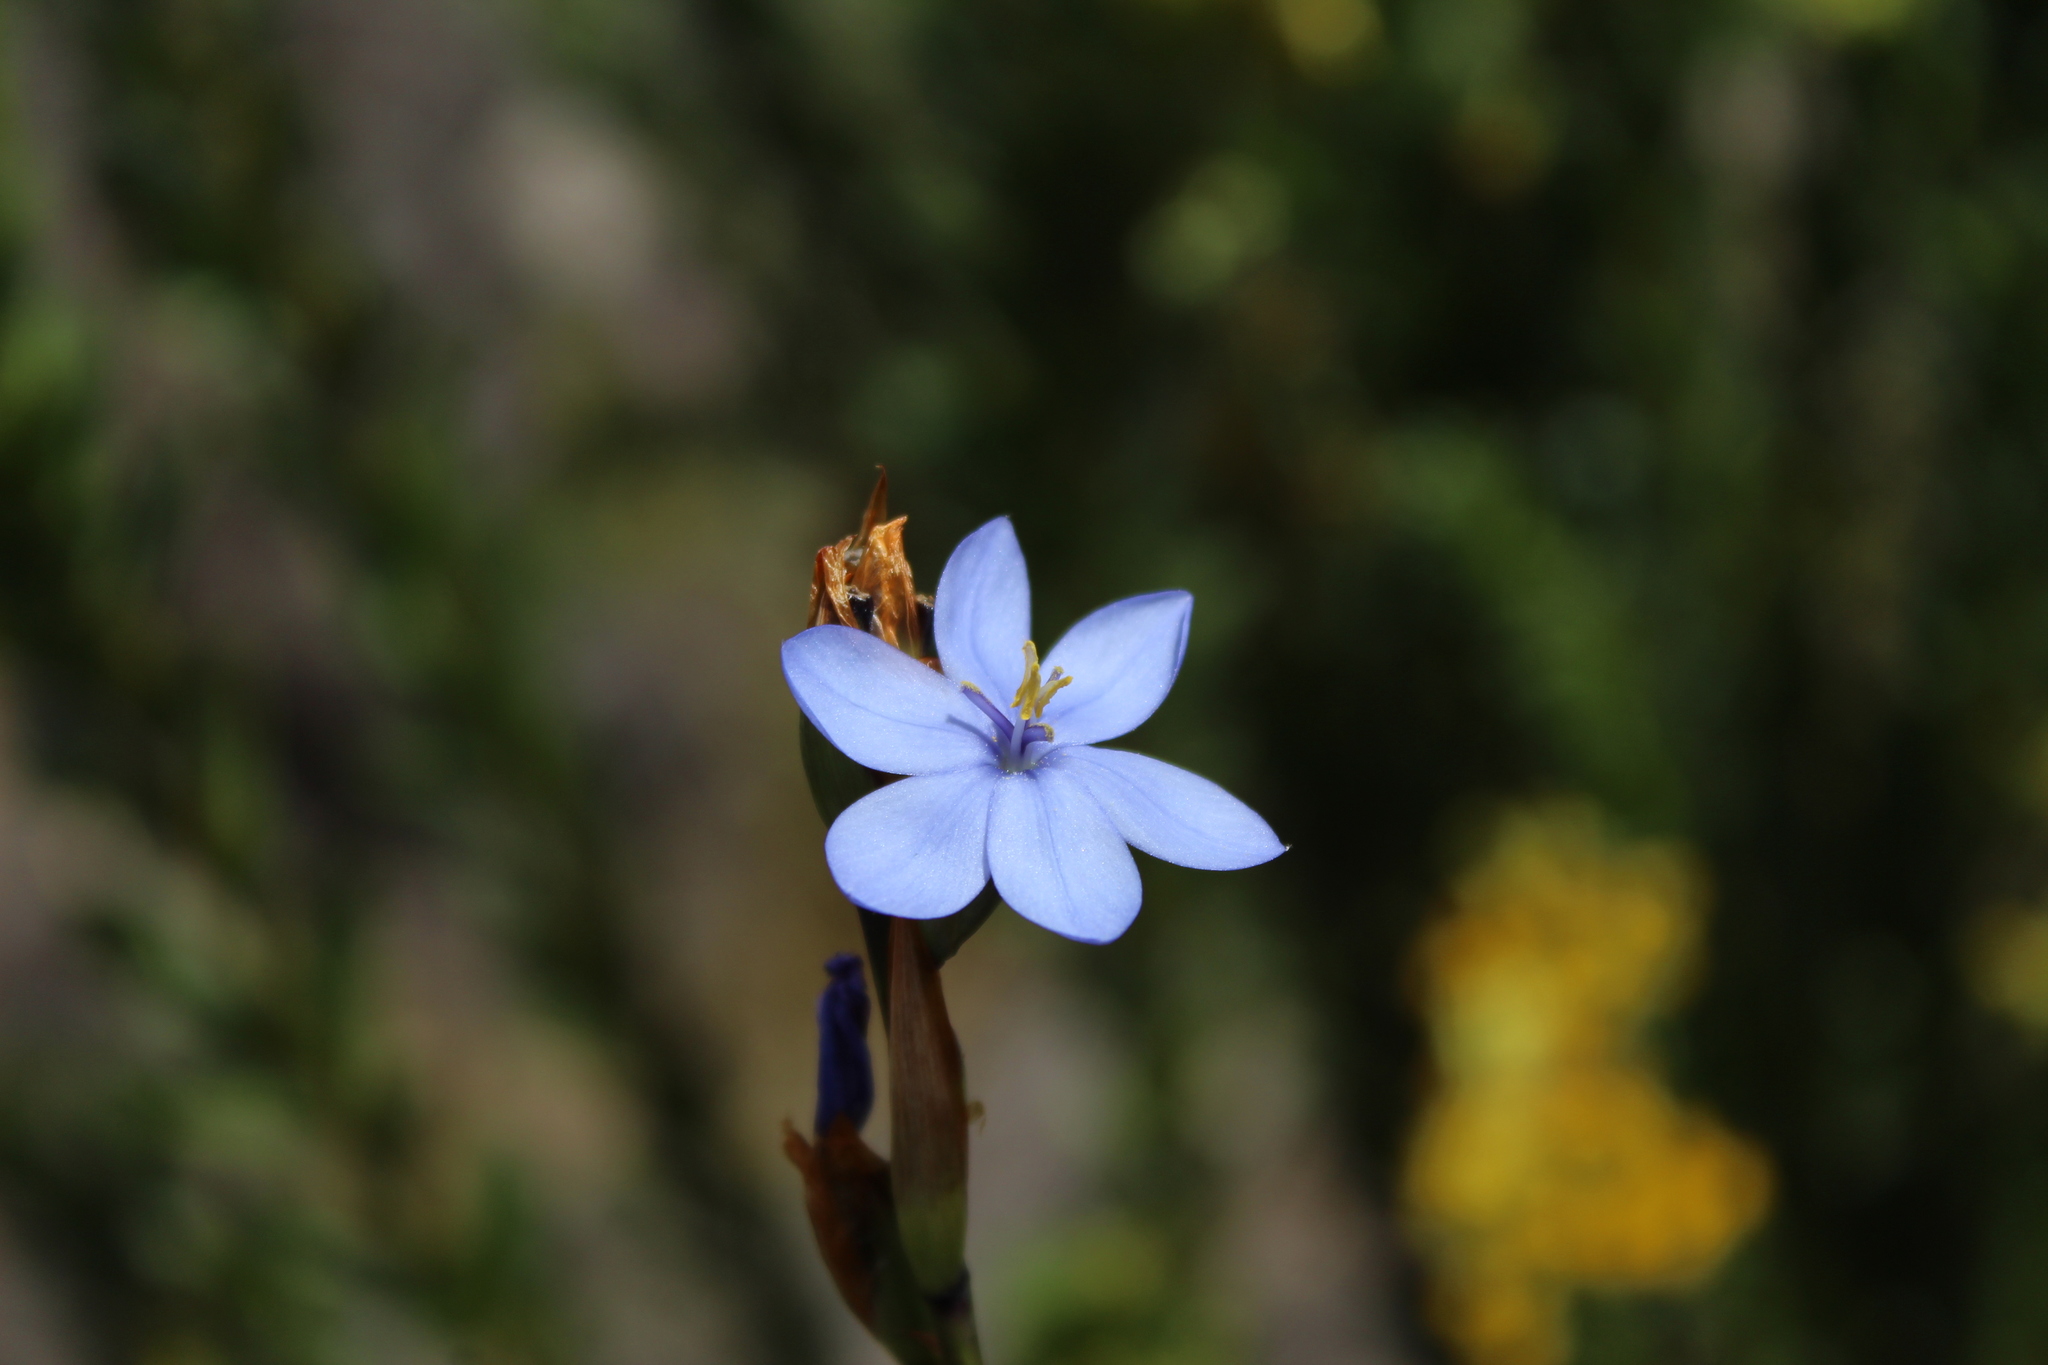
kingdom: Plantae
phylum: Tracheophyta
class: Liliopsida
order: Asparagales
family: Iridaceae
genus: Orthrosanthus
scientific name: Orthrosanthus chimboracensis
